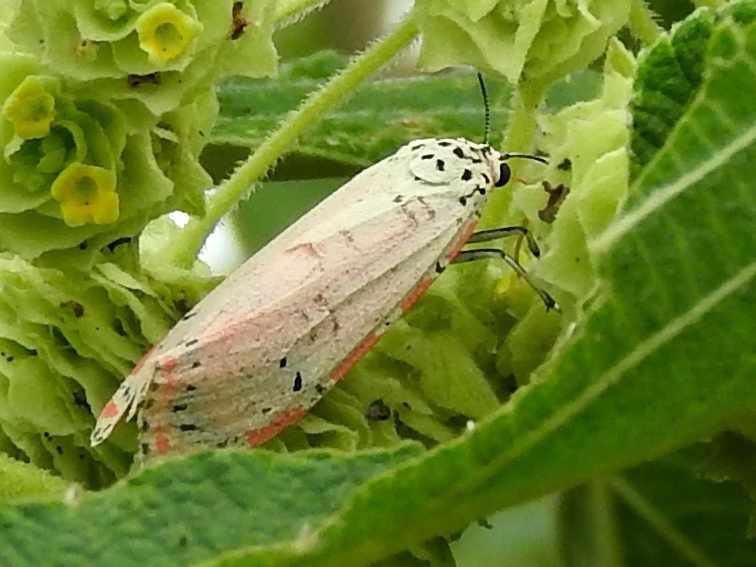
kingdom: Animalia
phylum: Arthropoda
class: Insecta
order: Lepidoptera
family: Erebidae
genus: Utetheisa
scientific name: Utetheisa ornatrix
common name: Beautiful utetheisa
